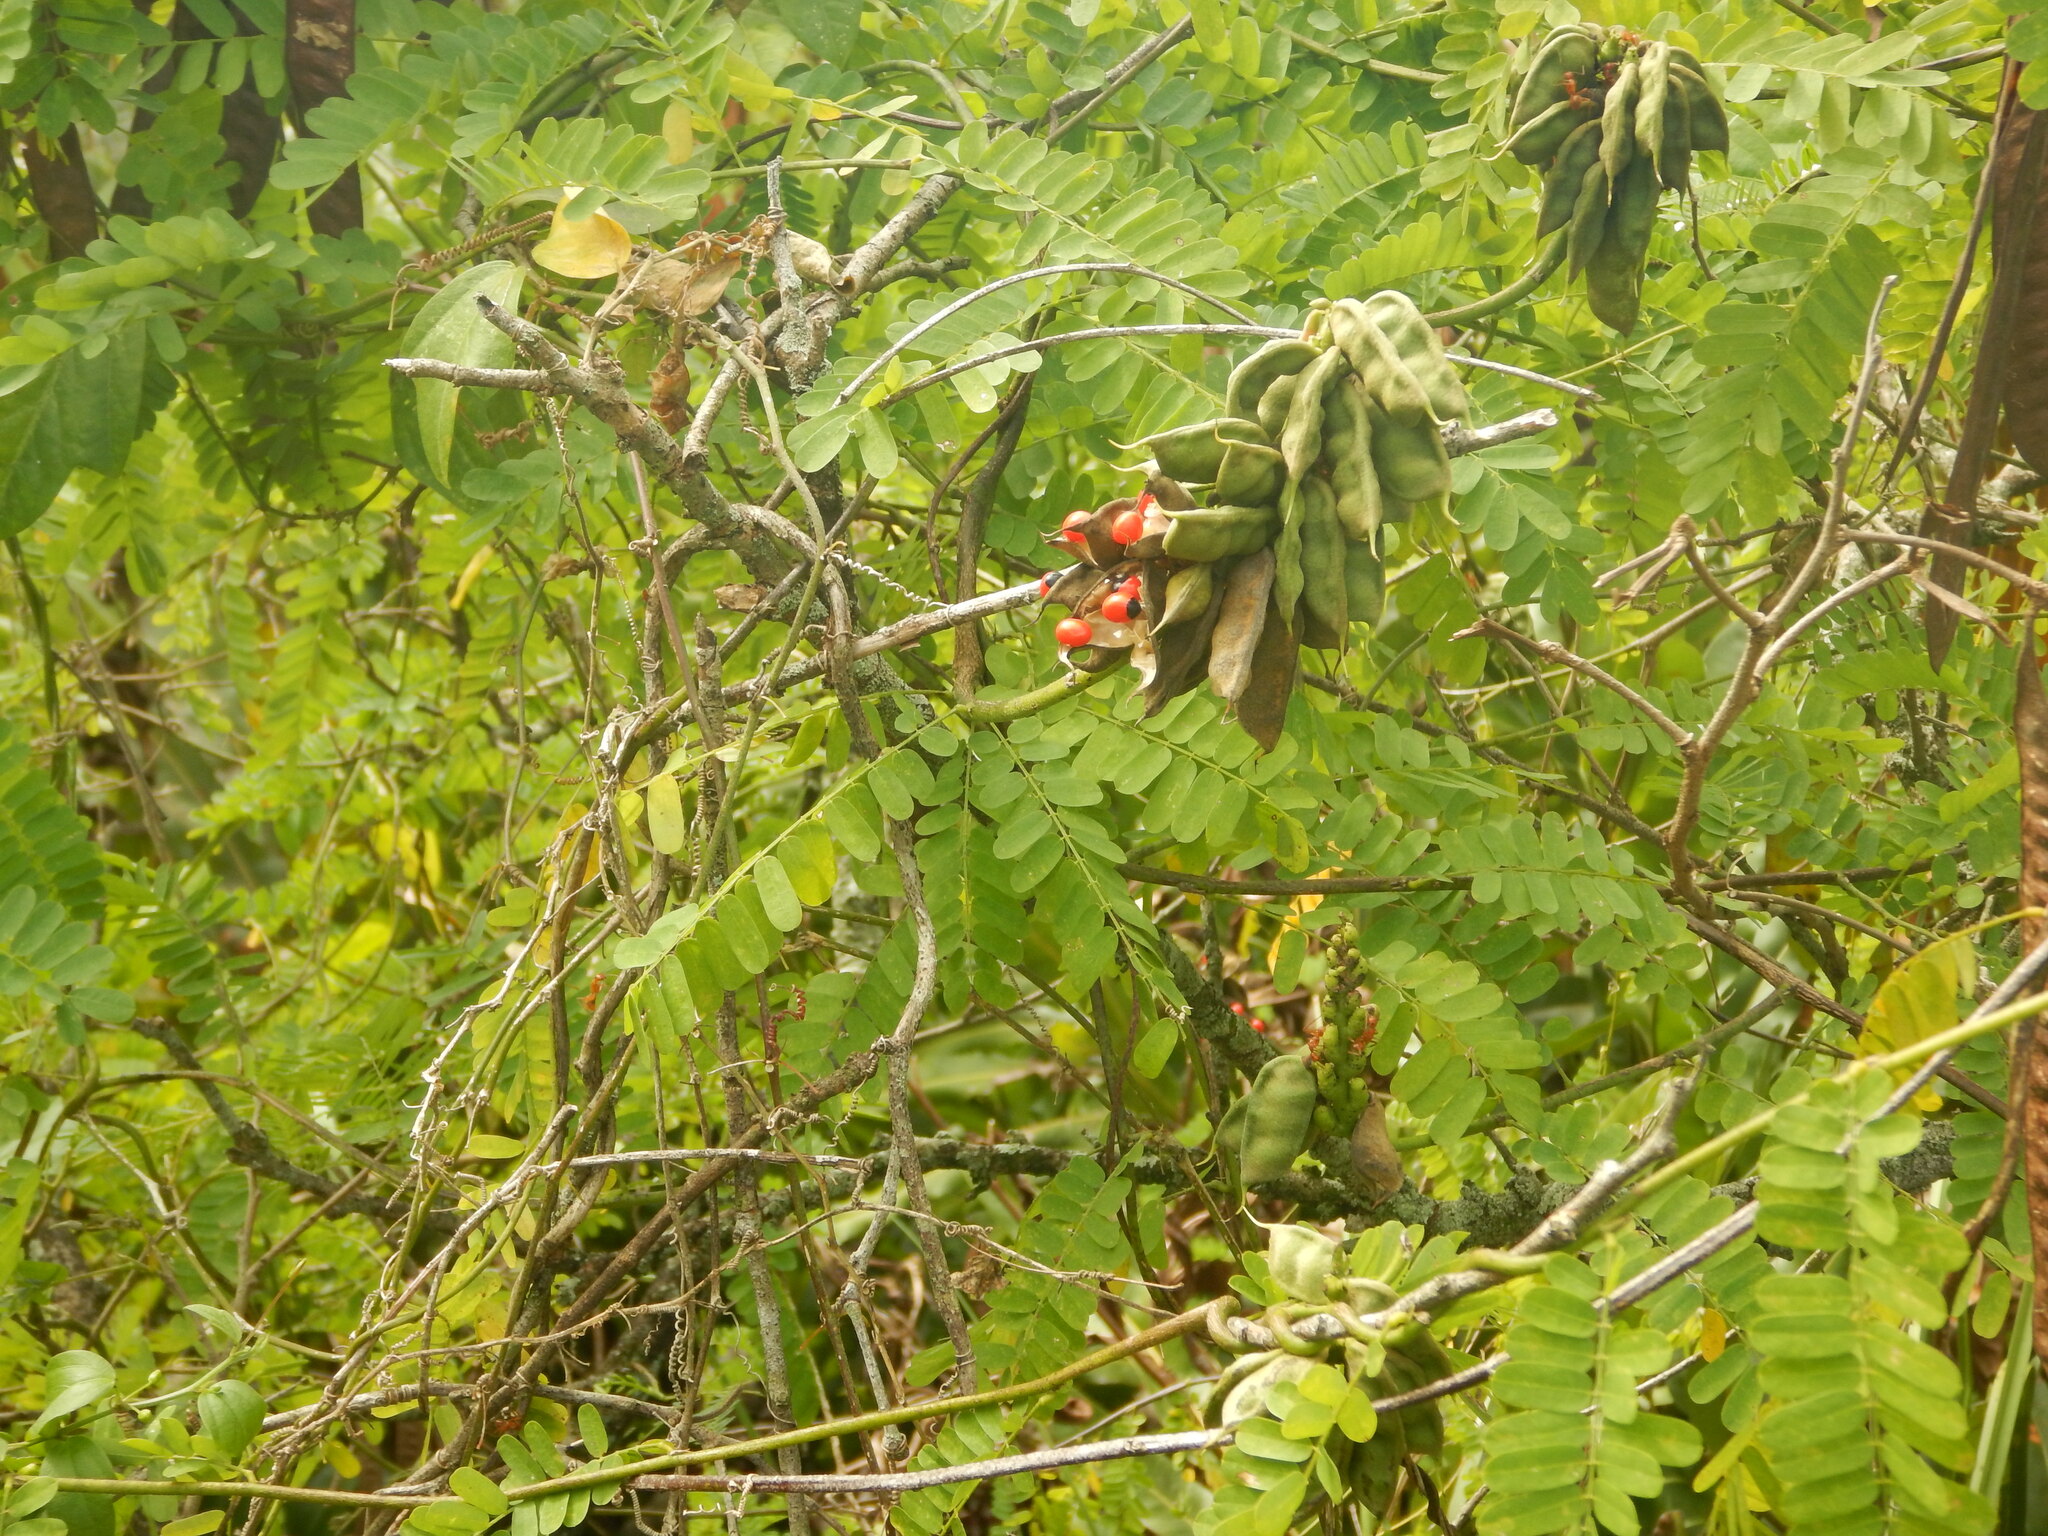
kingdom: Plantae
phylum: Tracheophyta
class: Magnoliopsida
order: Fabales
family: Fabaceae
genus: Abrus
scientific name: Abrus precatorius
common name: Rosarypea
